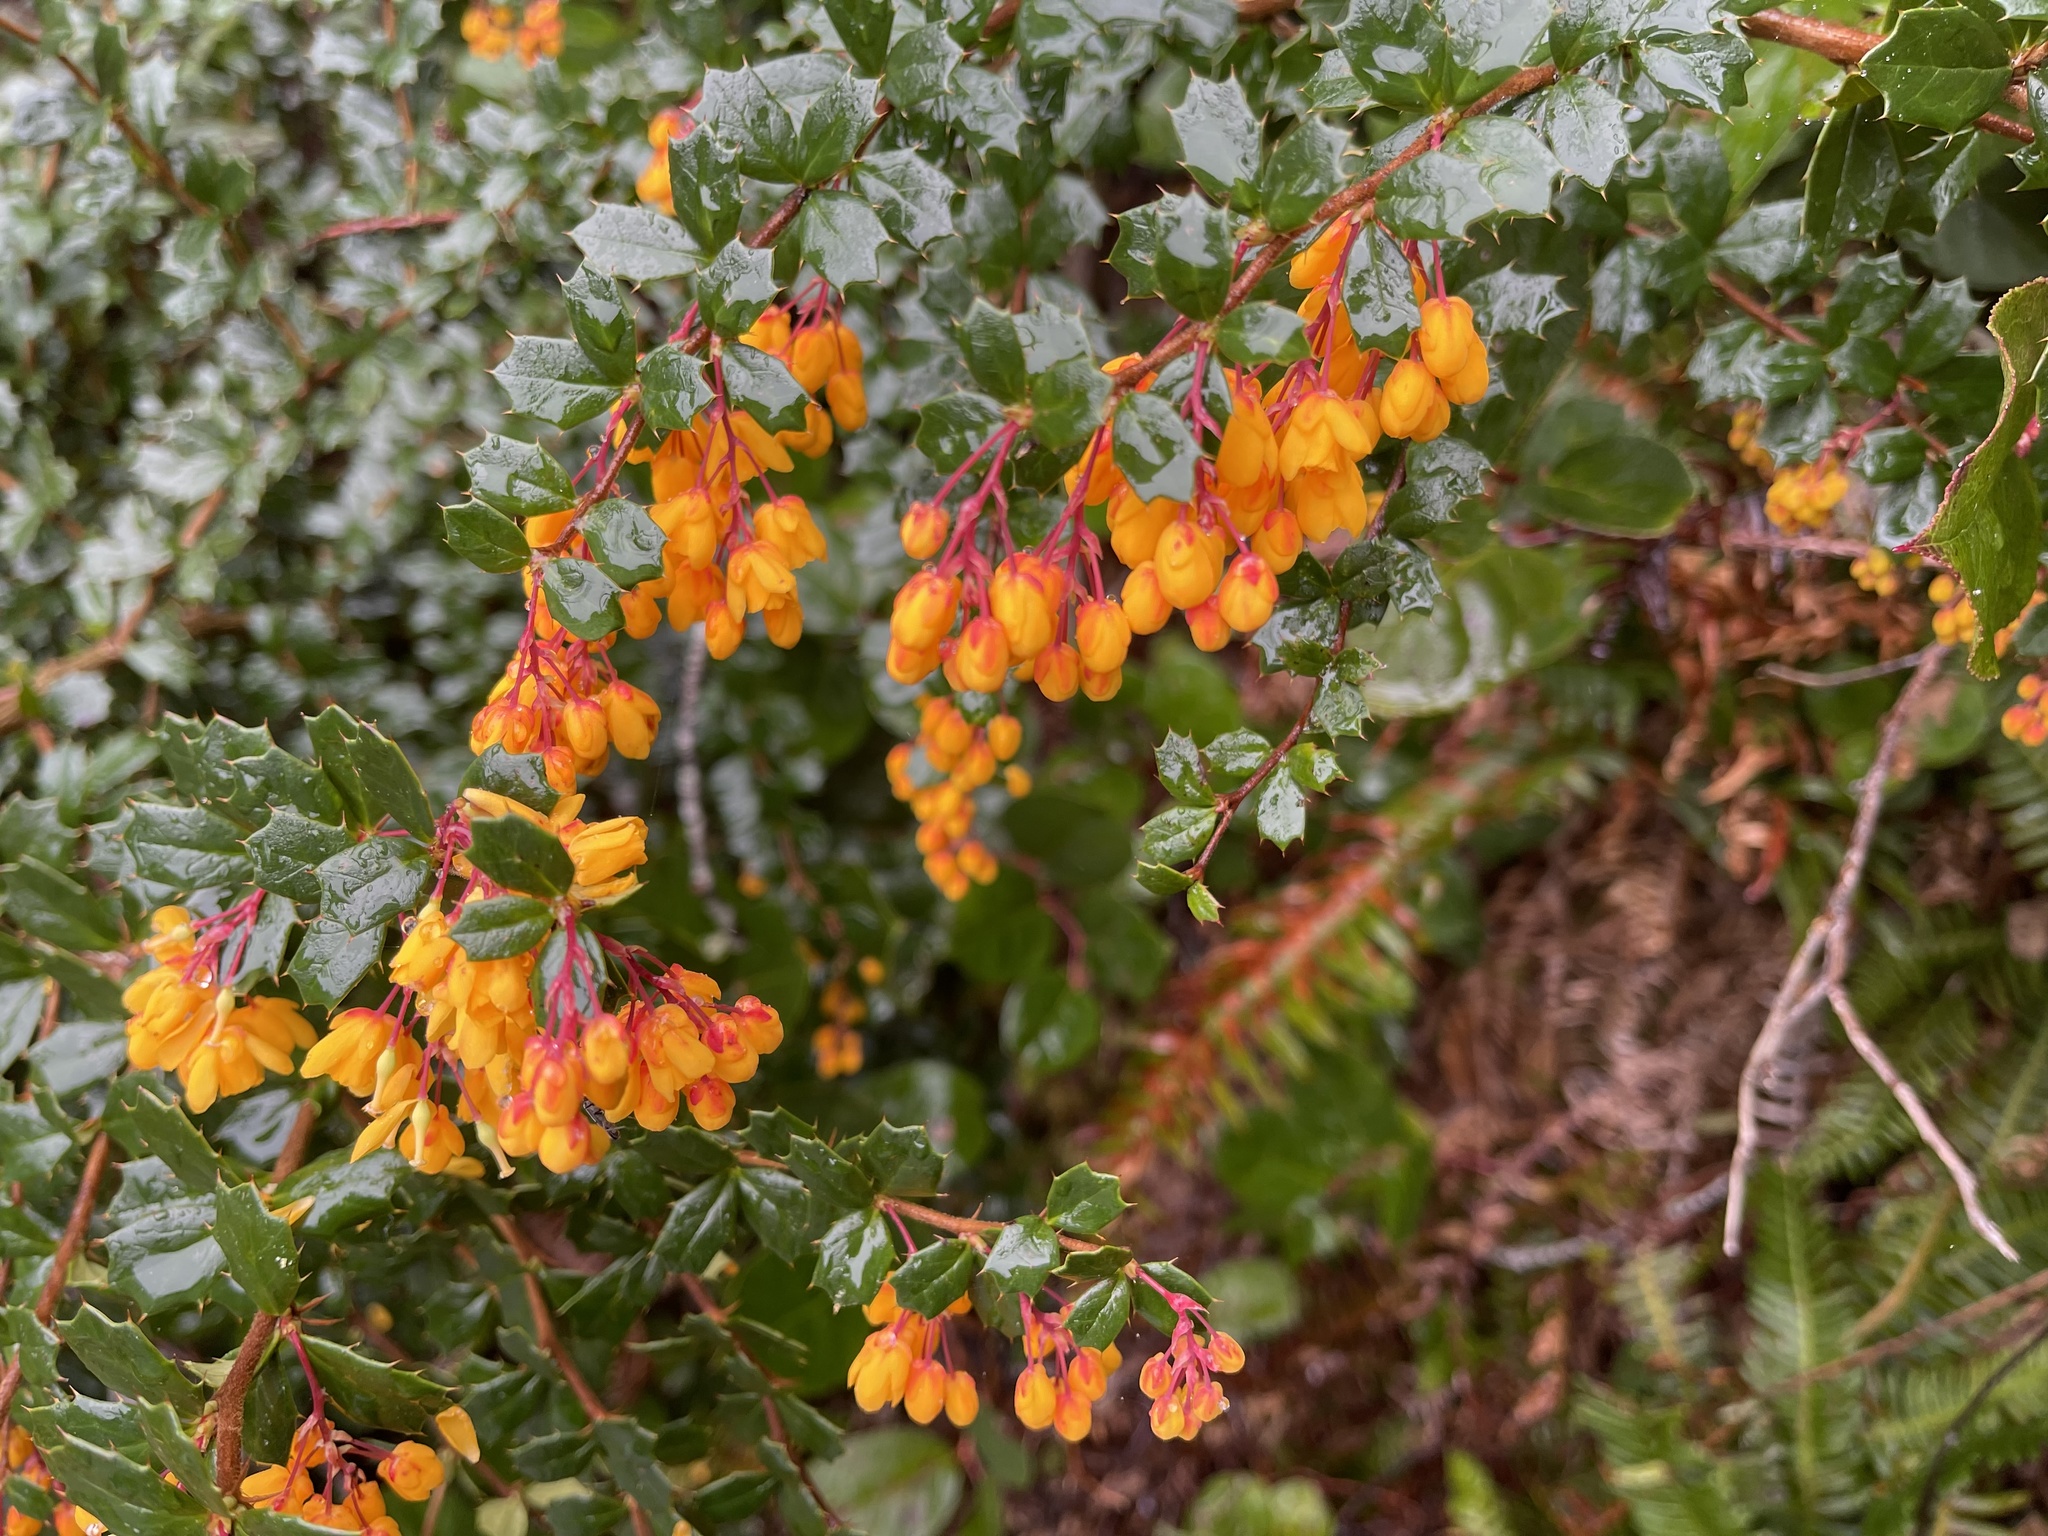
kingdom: Plantae
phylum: Tracheophyta
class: Magnoliopsida
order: Ranunculales
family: Berberidaceae
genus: Berberis
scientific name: Berberis darwinii
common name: Darwin's barberry
